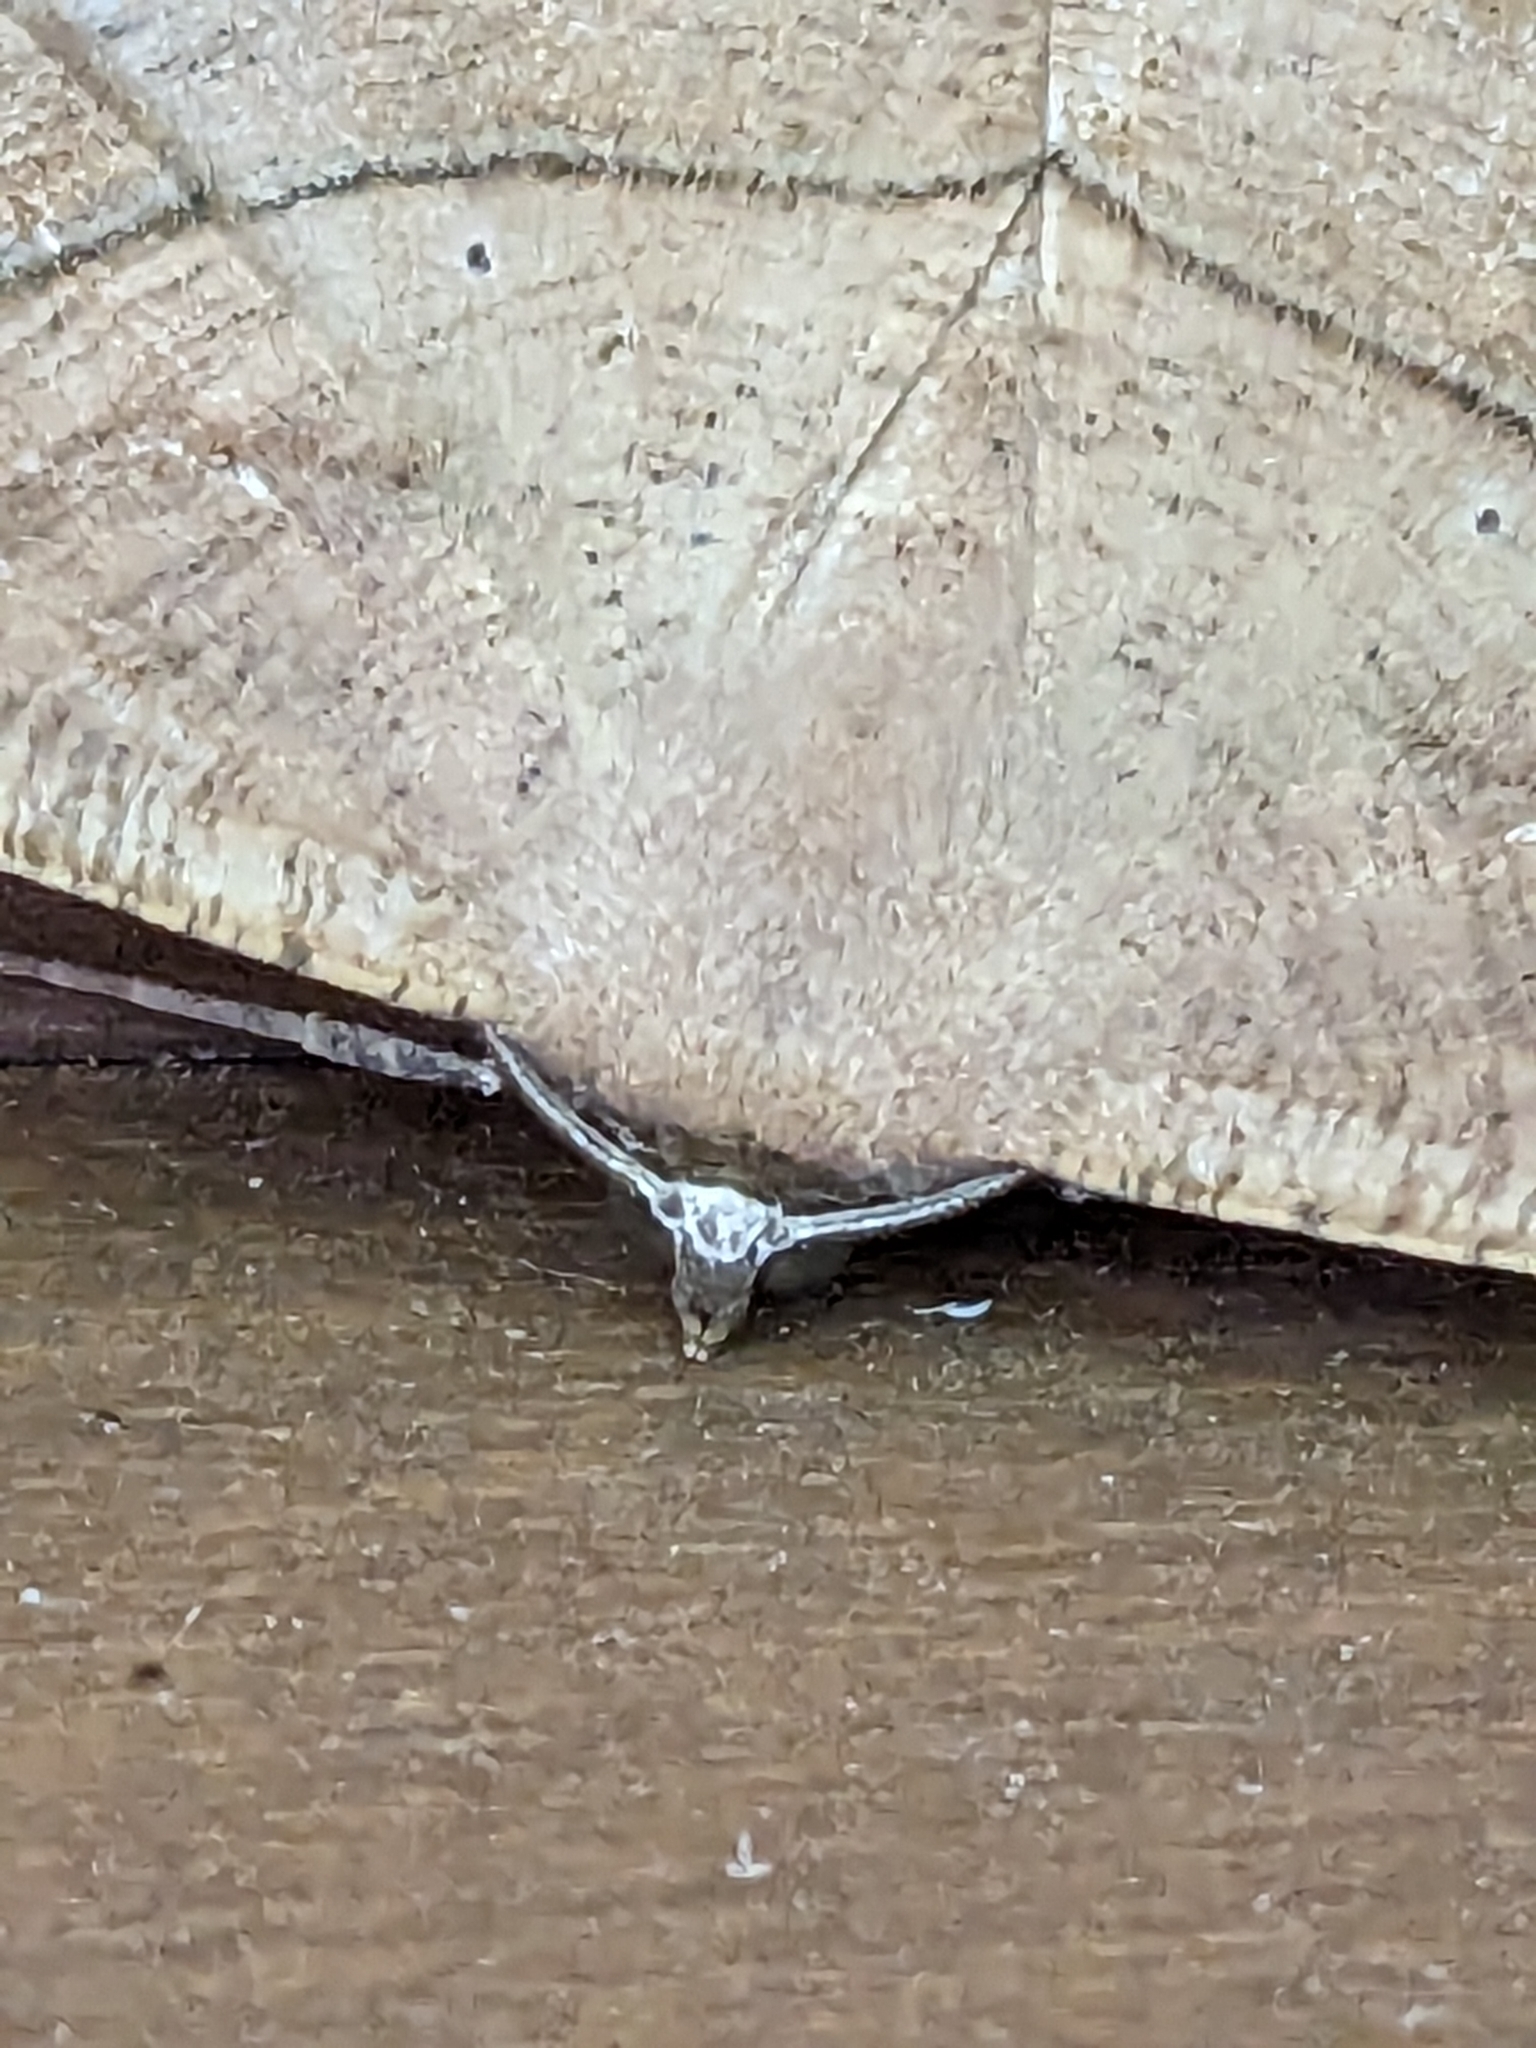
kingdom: Animalia
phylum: Arthropoda
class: Insecta
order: Lepidoptera
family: Geometridae
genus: Prochoerodes
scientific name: Prochoerodes lineola
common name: Large maple spanworm
